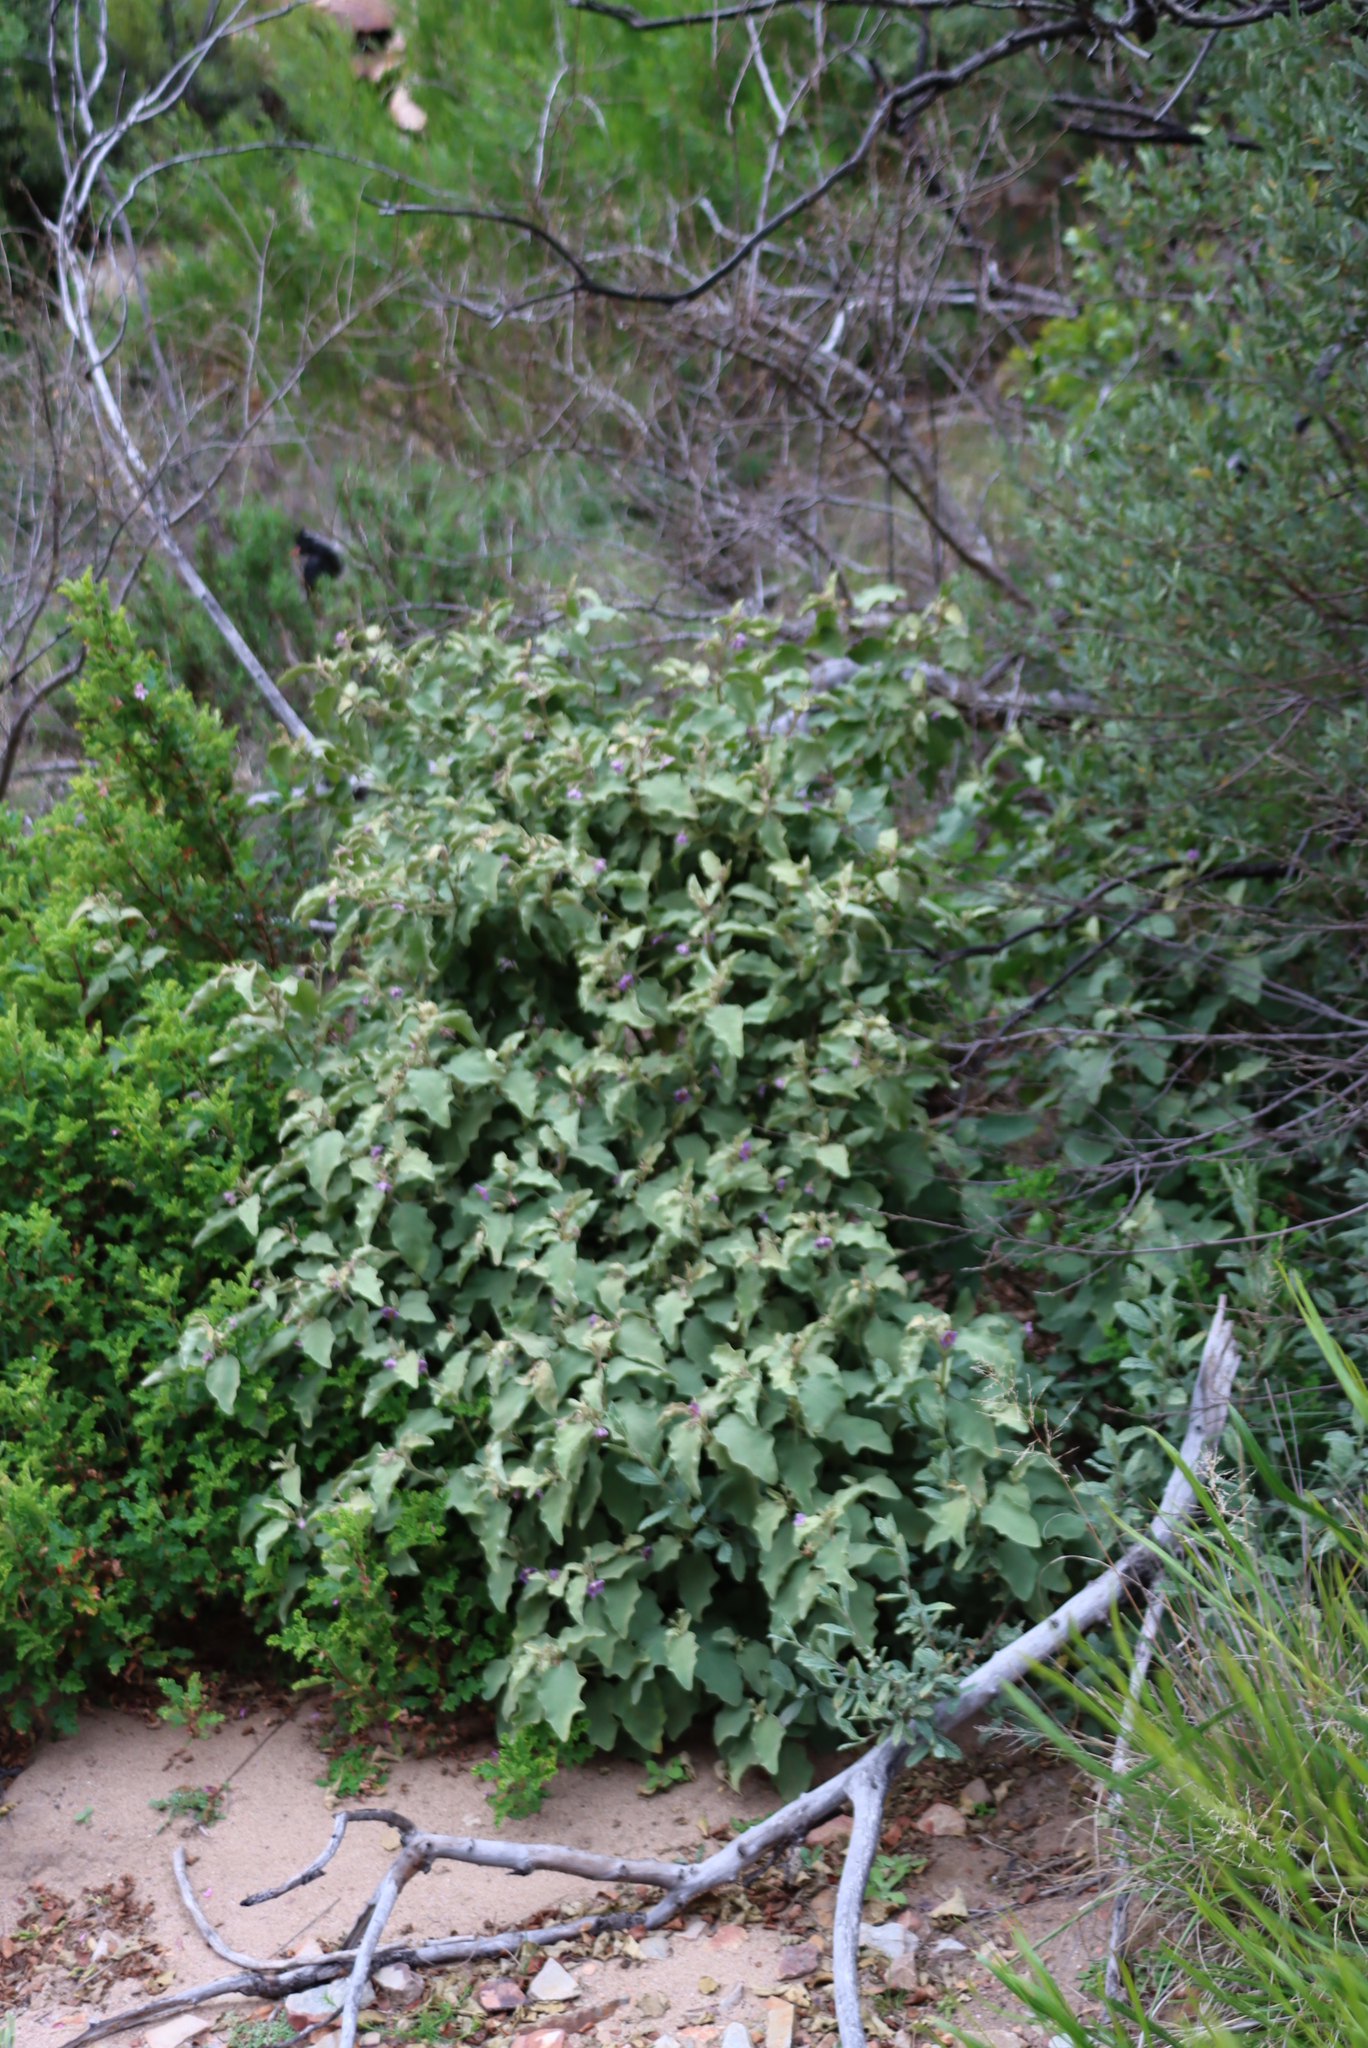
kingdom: Plantae
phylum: Tracheophyta
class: Magnoliopsida
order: Solanales
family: Solanaceae
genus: Solanum
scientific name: Solanum tomentosum
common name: Wild aubergine
